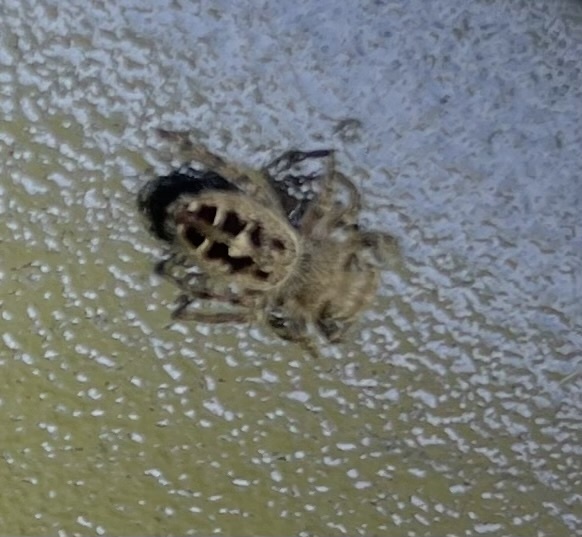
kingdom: Animalia
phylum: Arthropoda
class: Arachnida
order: Araneae
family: Salticidae
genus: Phidippus
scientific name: Phidippus carolinensis
